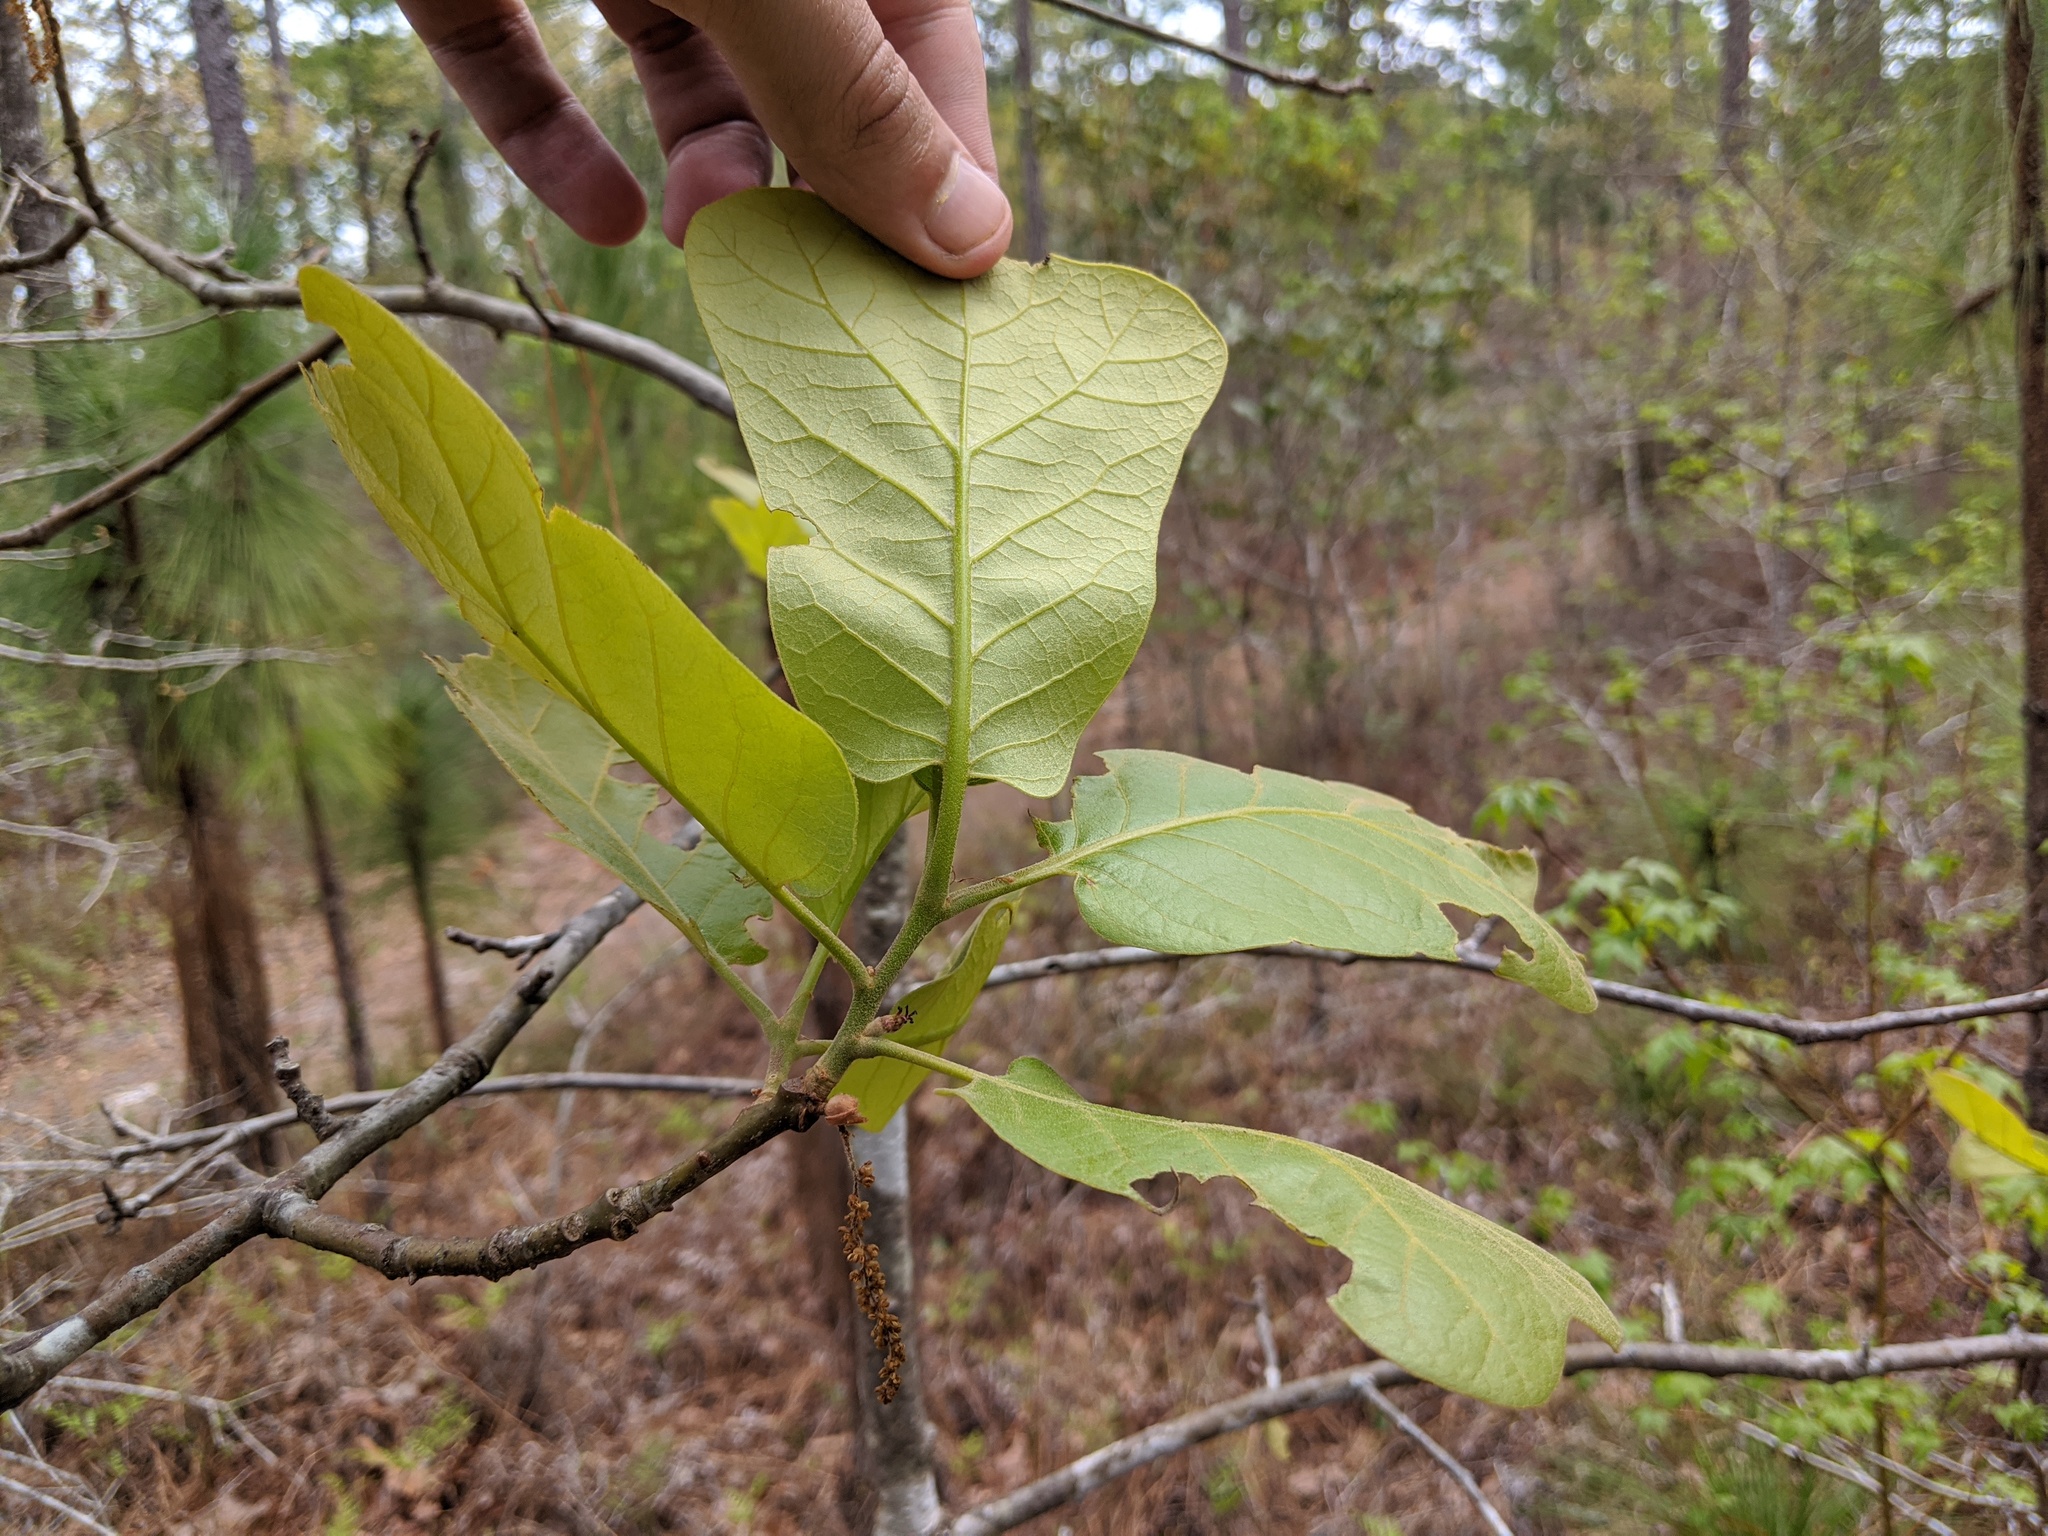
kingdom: Plantae
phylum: Tracheophyta
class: Magnoliopsida
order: Fagales
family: Fagaceae
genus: Quercus
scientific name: Quercus marilandica
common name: Blackjack oak
